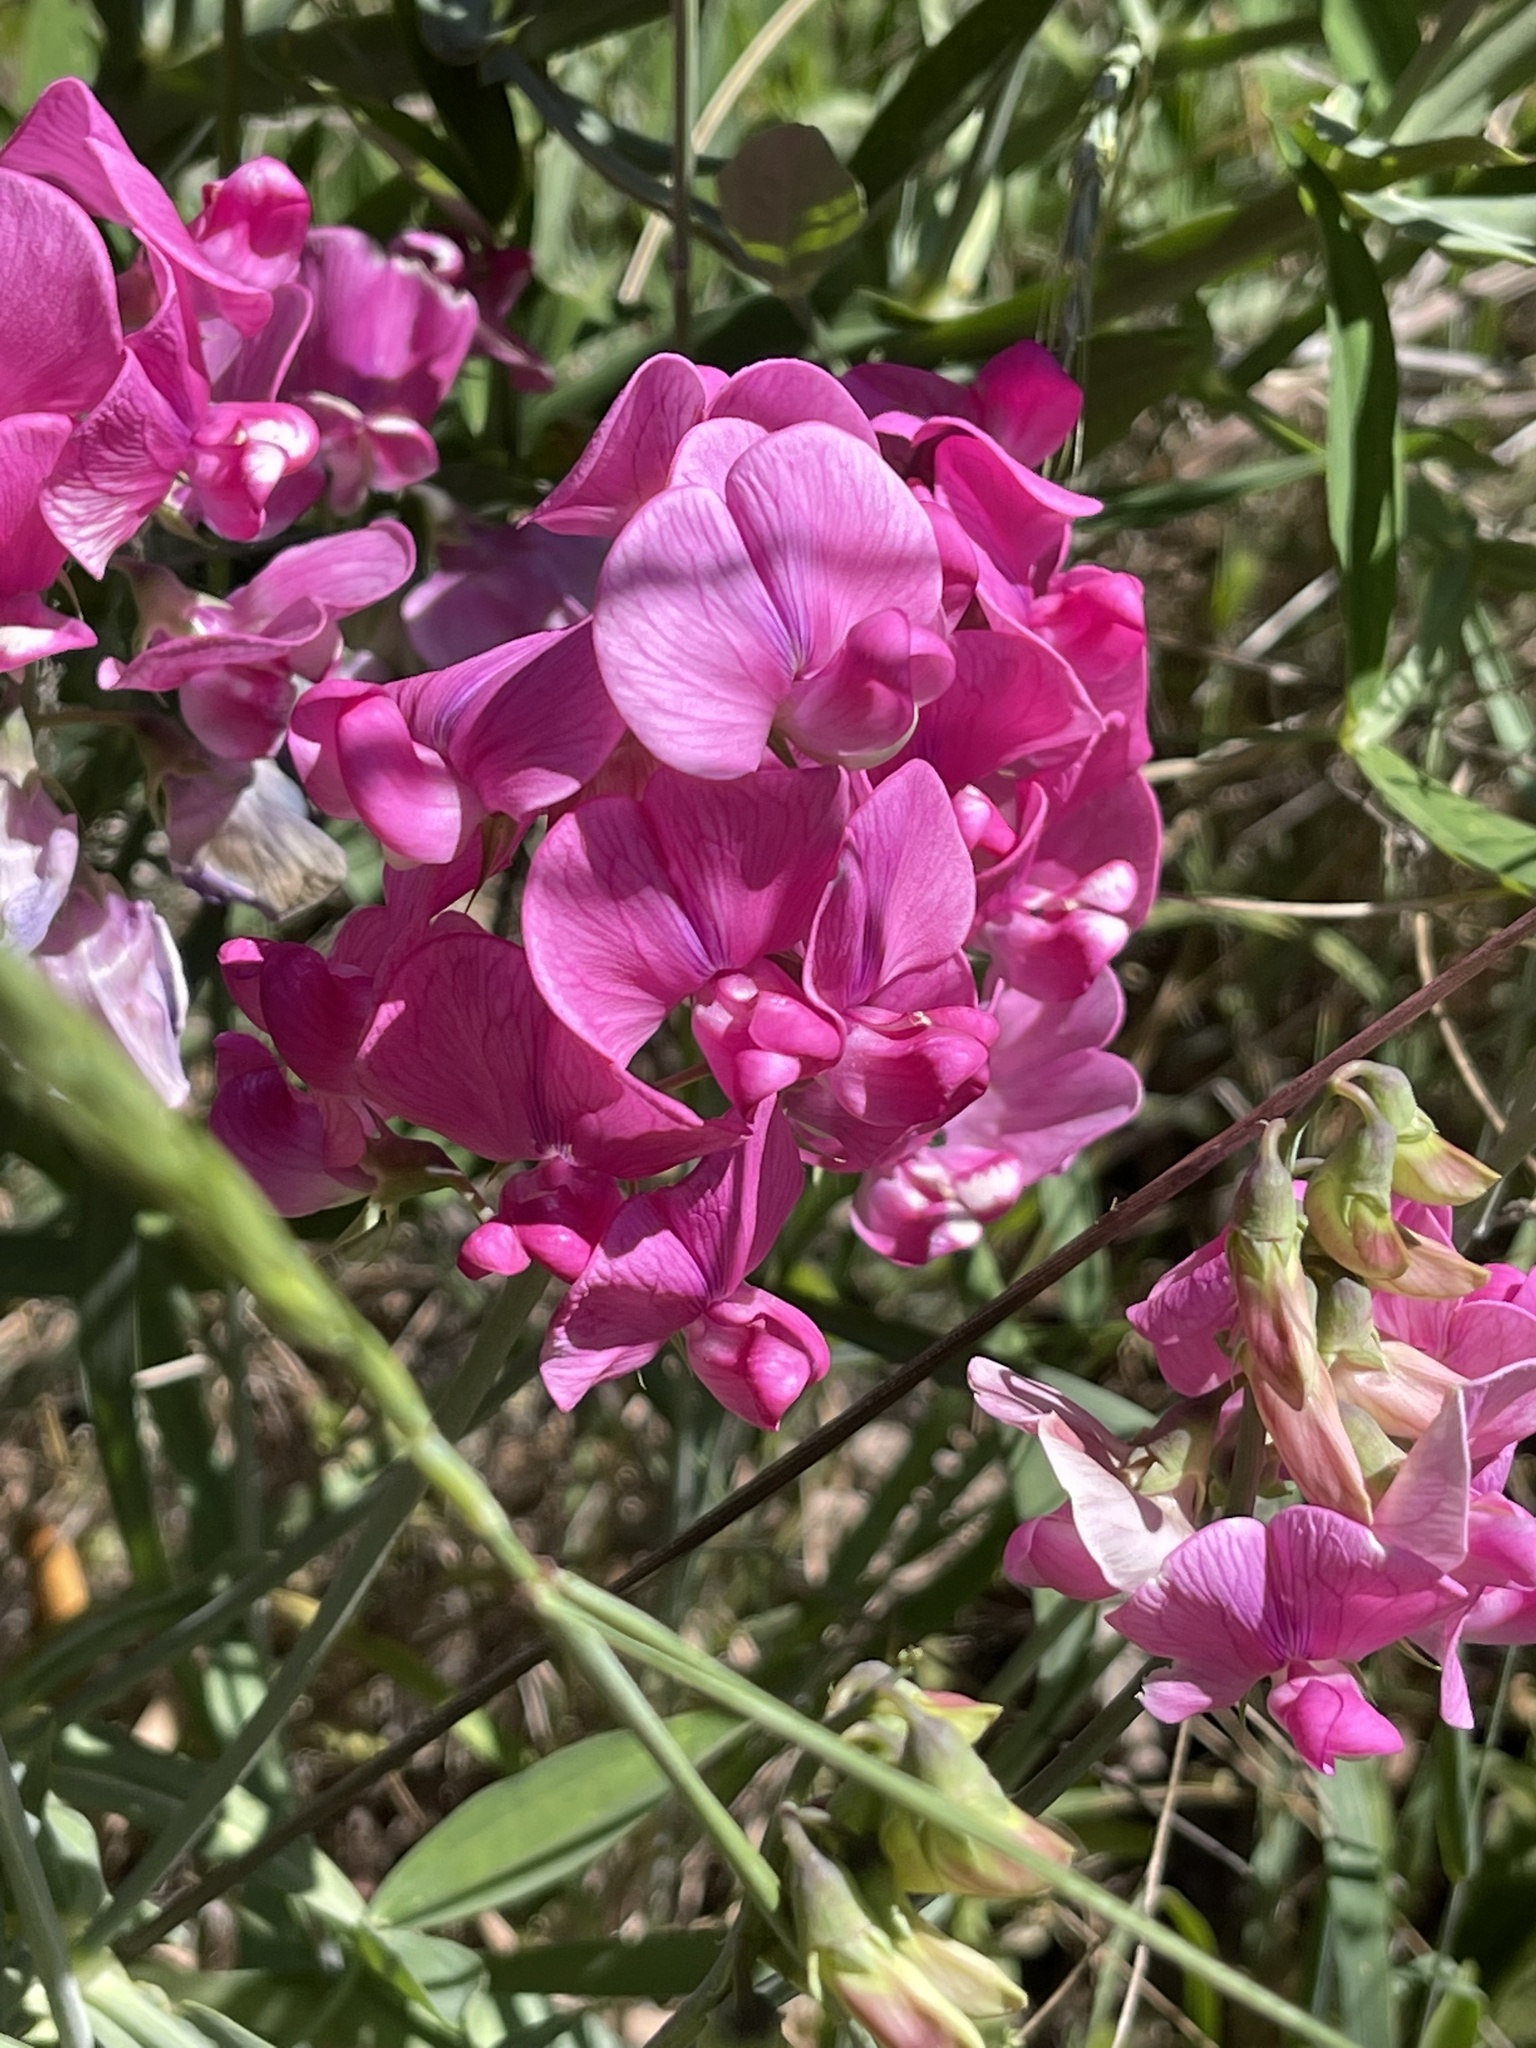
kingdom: Plantae
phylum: Tracheophyta
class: Magnoliopsida
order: Fabales
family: Fabaceae
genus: Lathyrus
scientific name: Lathyrus latifolius
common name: Perennial pea
